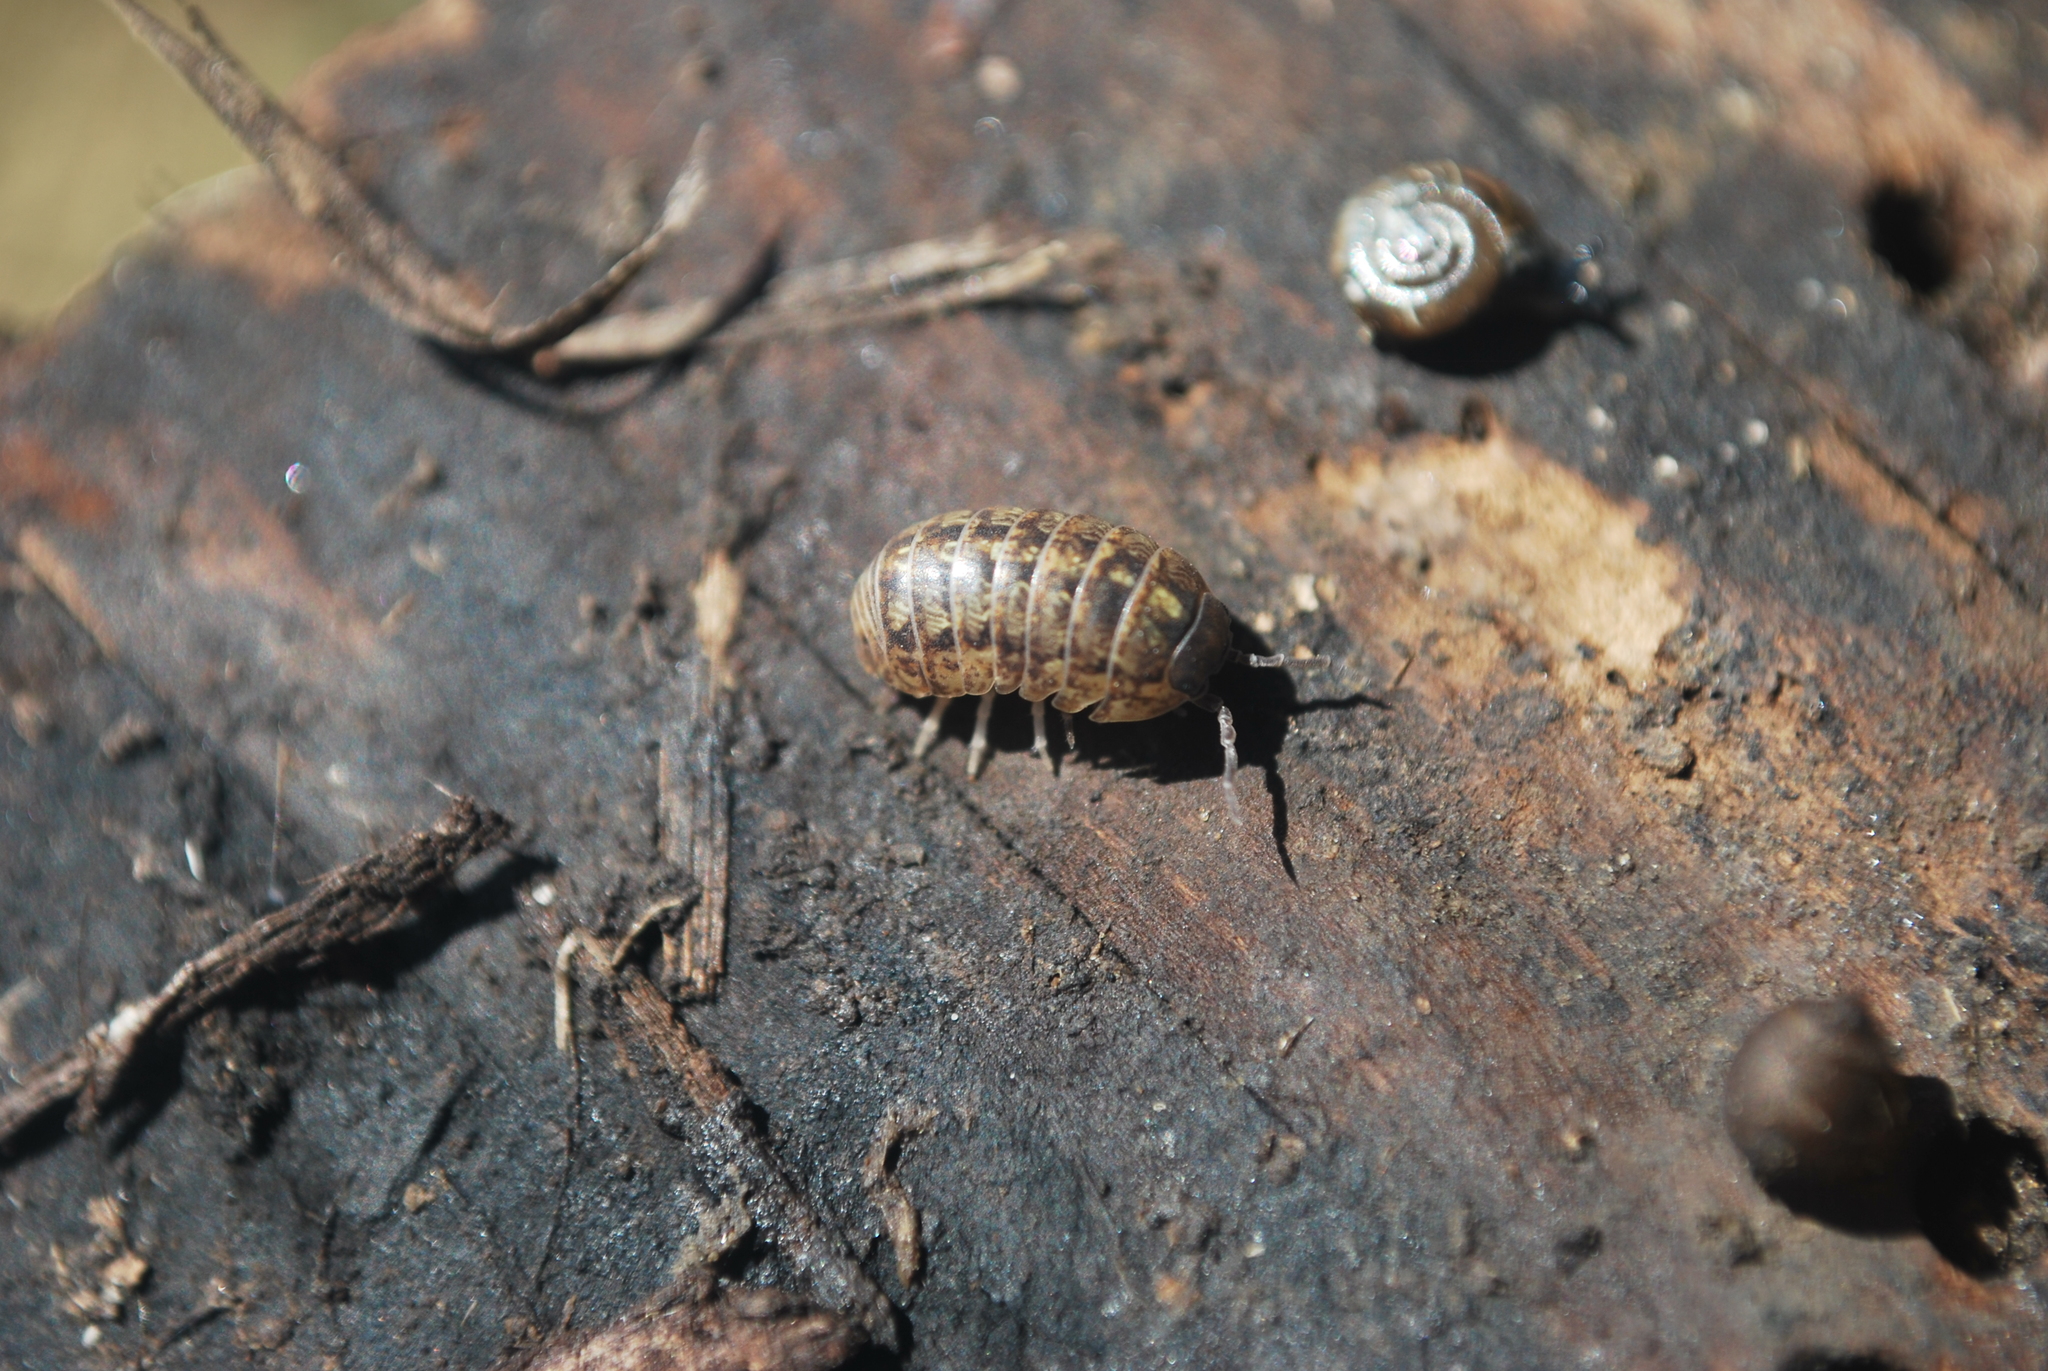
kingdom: Animalia
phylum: Arthropoda
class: Malacostraca
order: Isopoda
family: Armadillidiidae
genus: Armadillidium
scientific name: Armadillidium vulgare
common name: Common pill woodlouse
